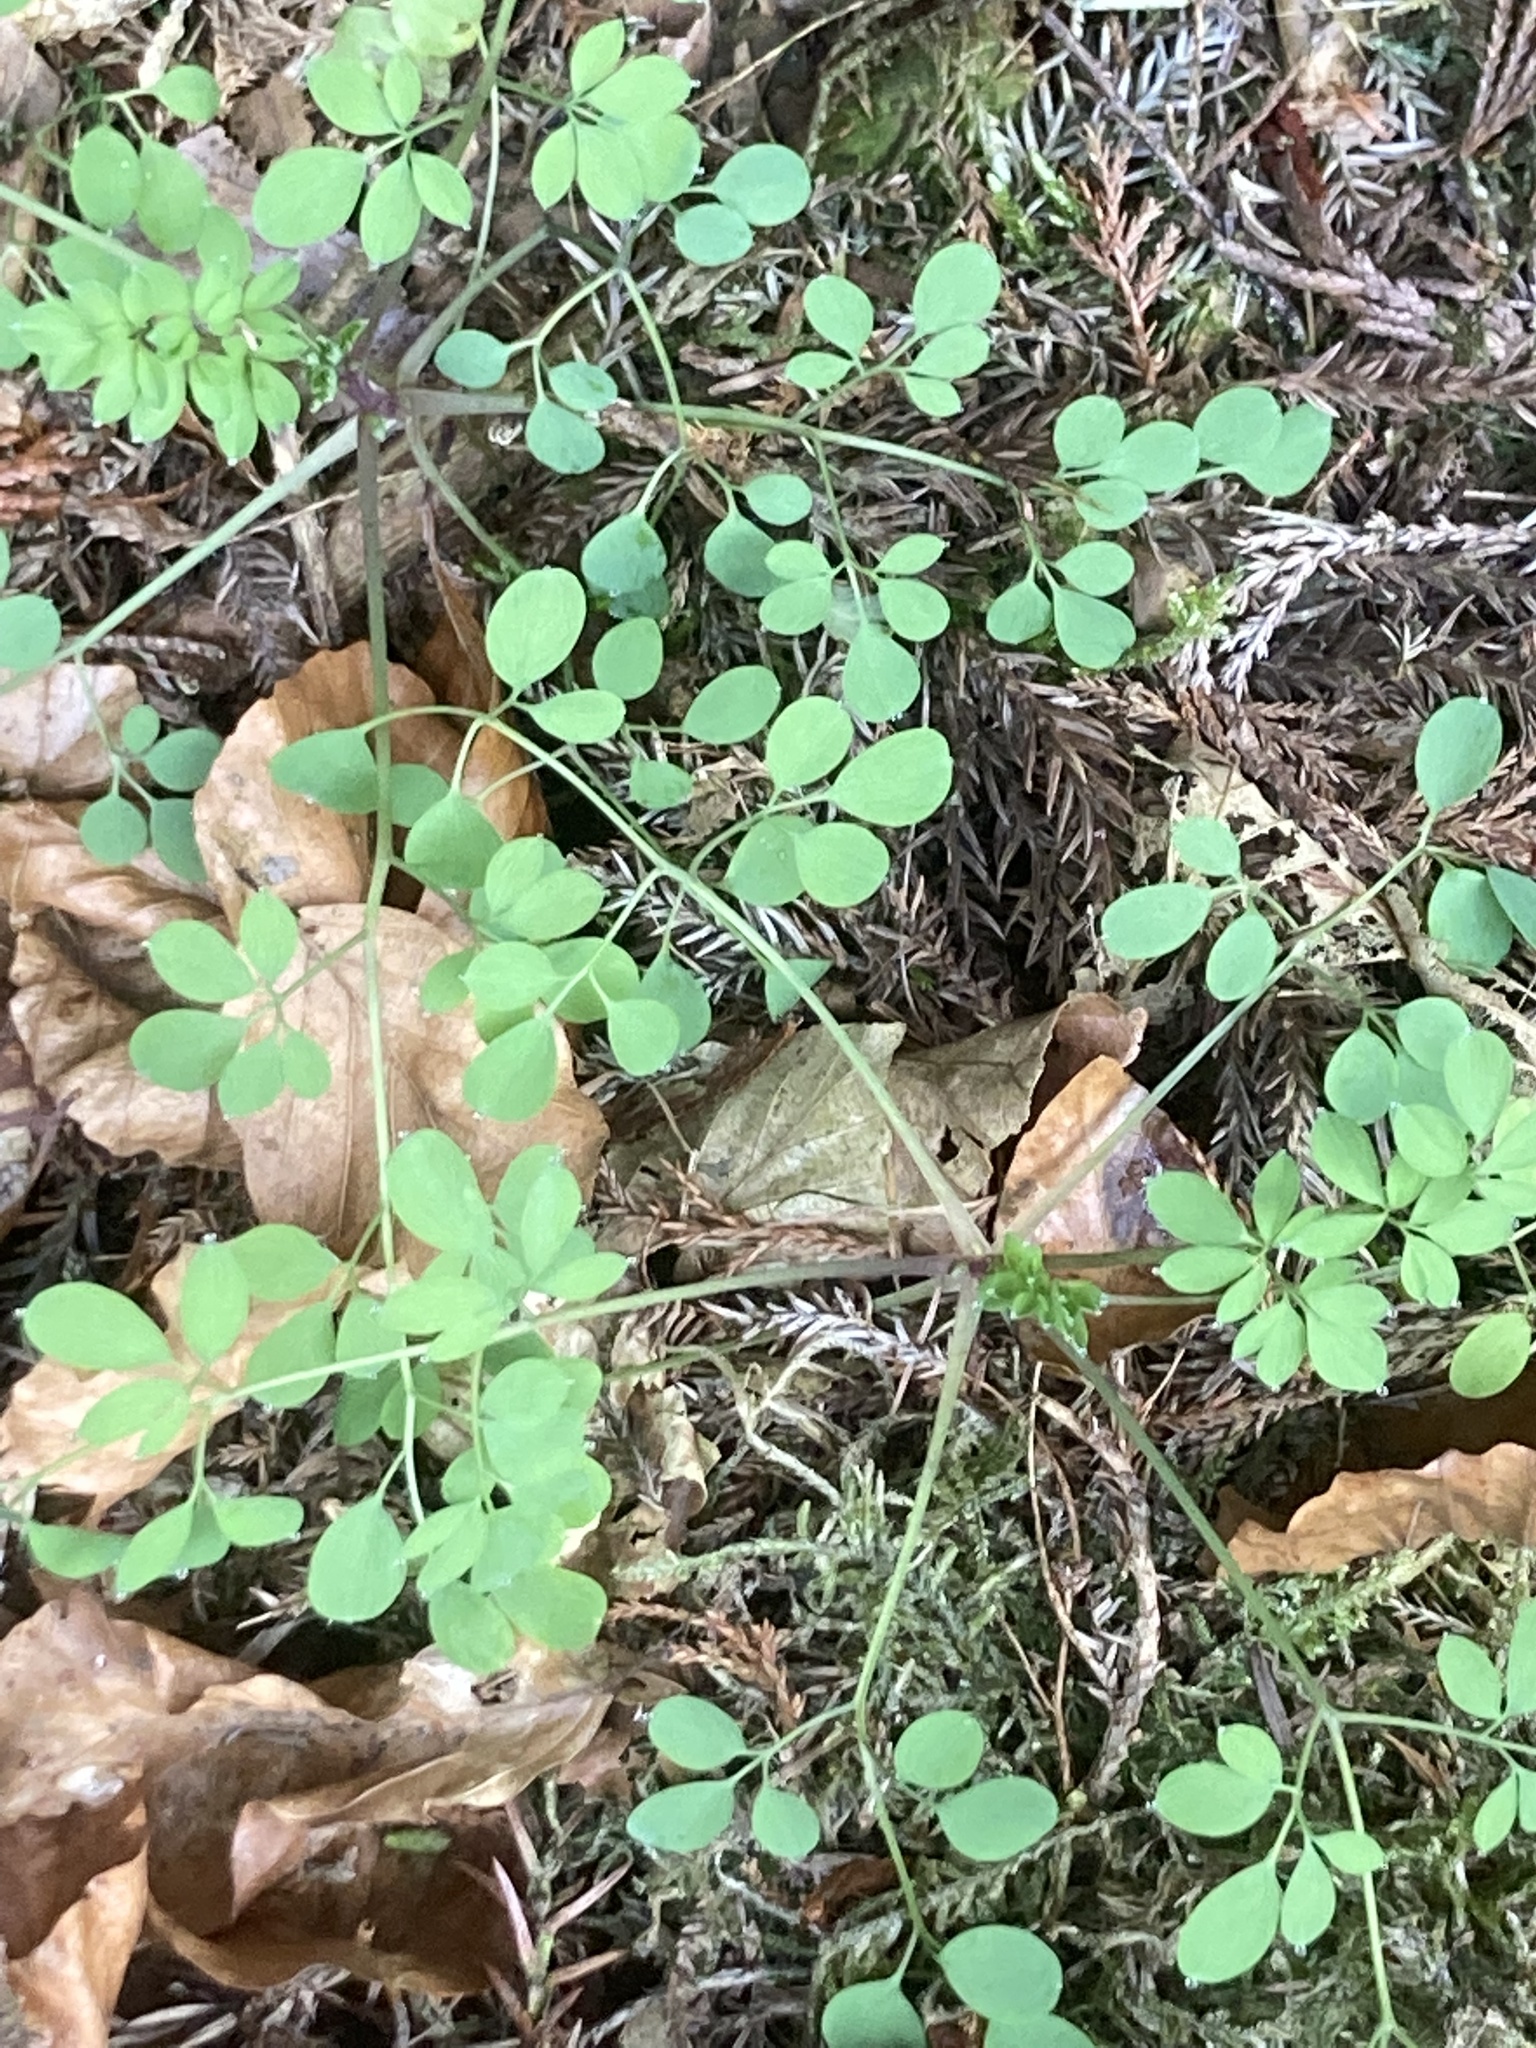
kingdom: Plantae
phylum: Tracheophyta
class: Magnoliopsida
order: Ranunculales
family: Papaveraceae
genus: Ceratocapnos
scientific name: Ceratocapnos claviculata
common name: Climbing corydalis
